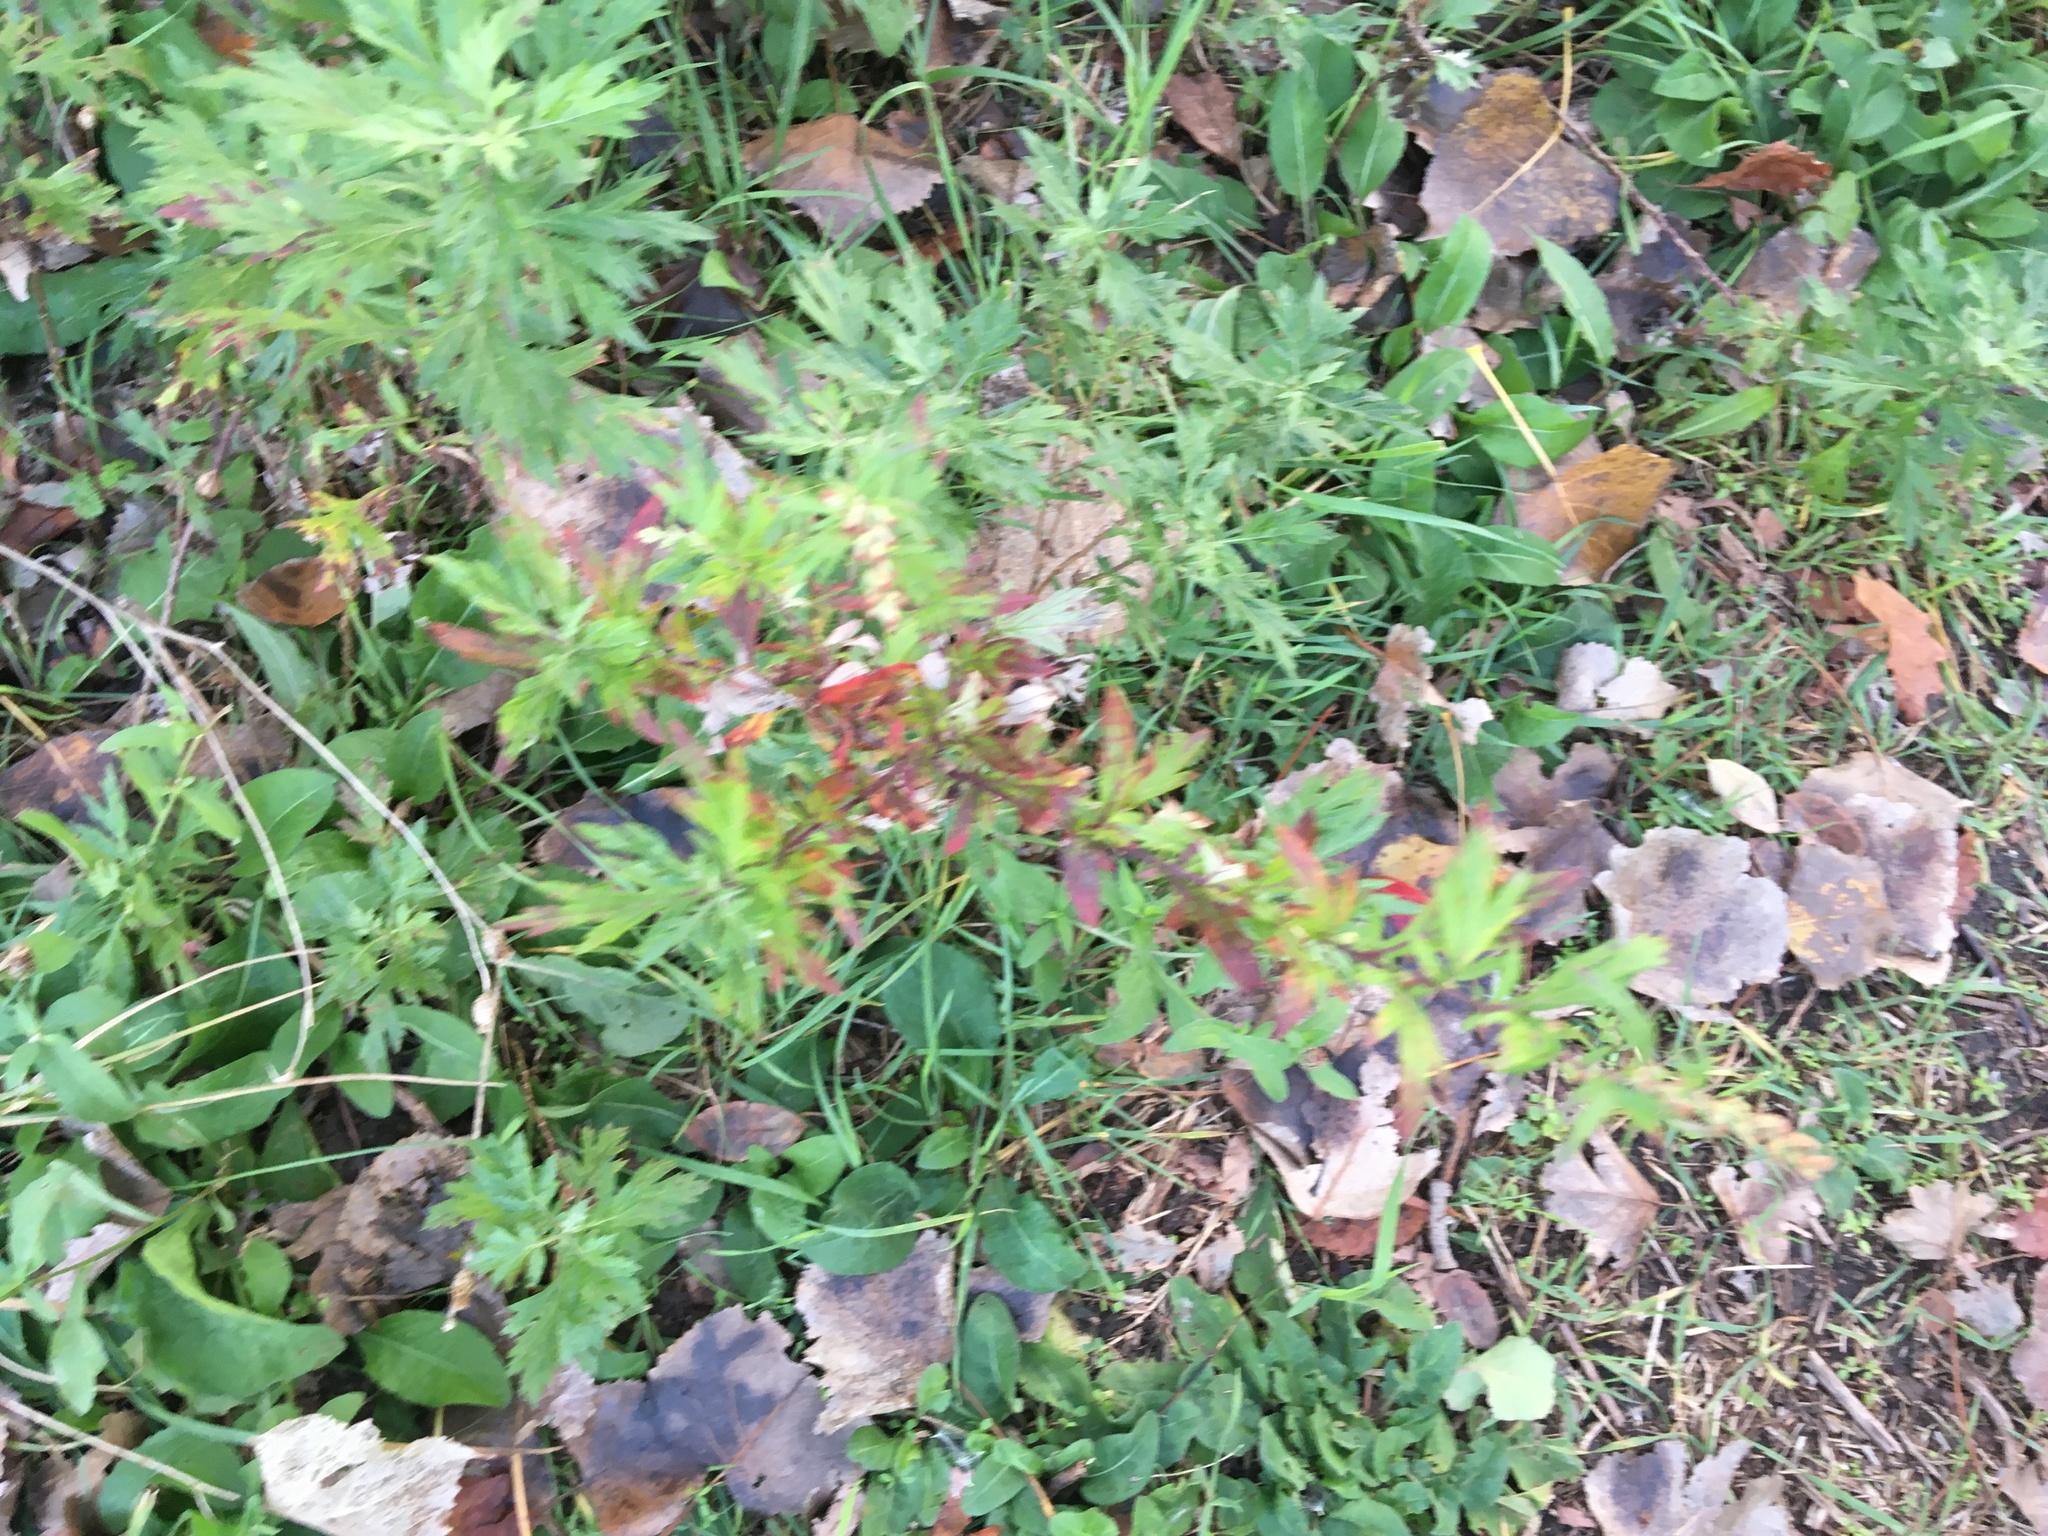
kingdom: Plantae
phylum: Tracheophyta
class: Magnoliopsida
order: Asterales
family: Asteraceae
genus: Artemisia
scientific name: Artemisia vulgaris
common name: Mugwort
